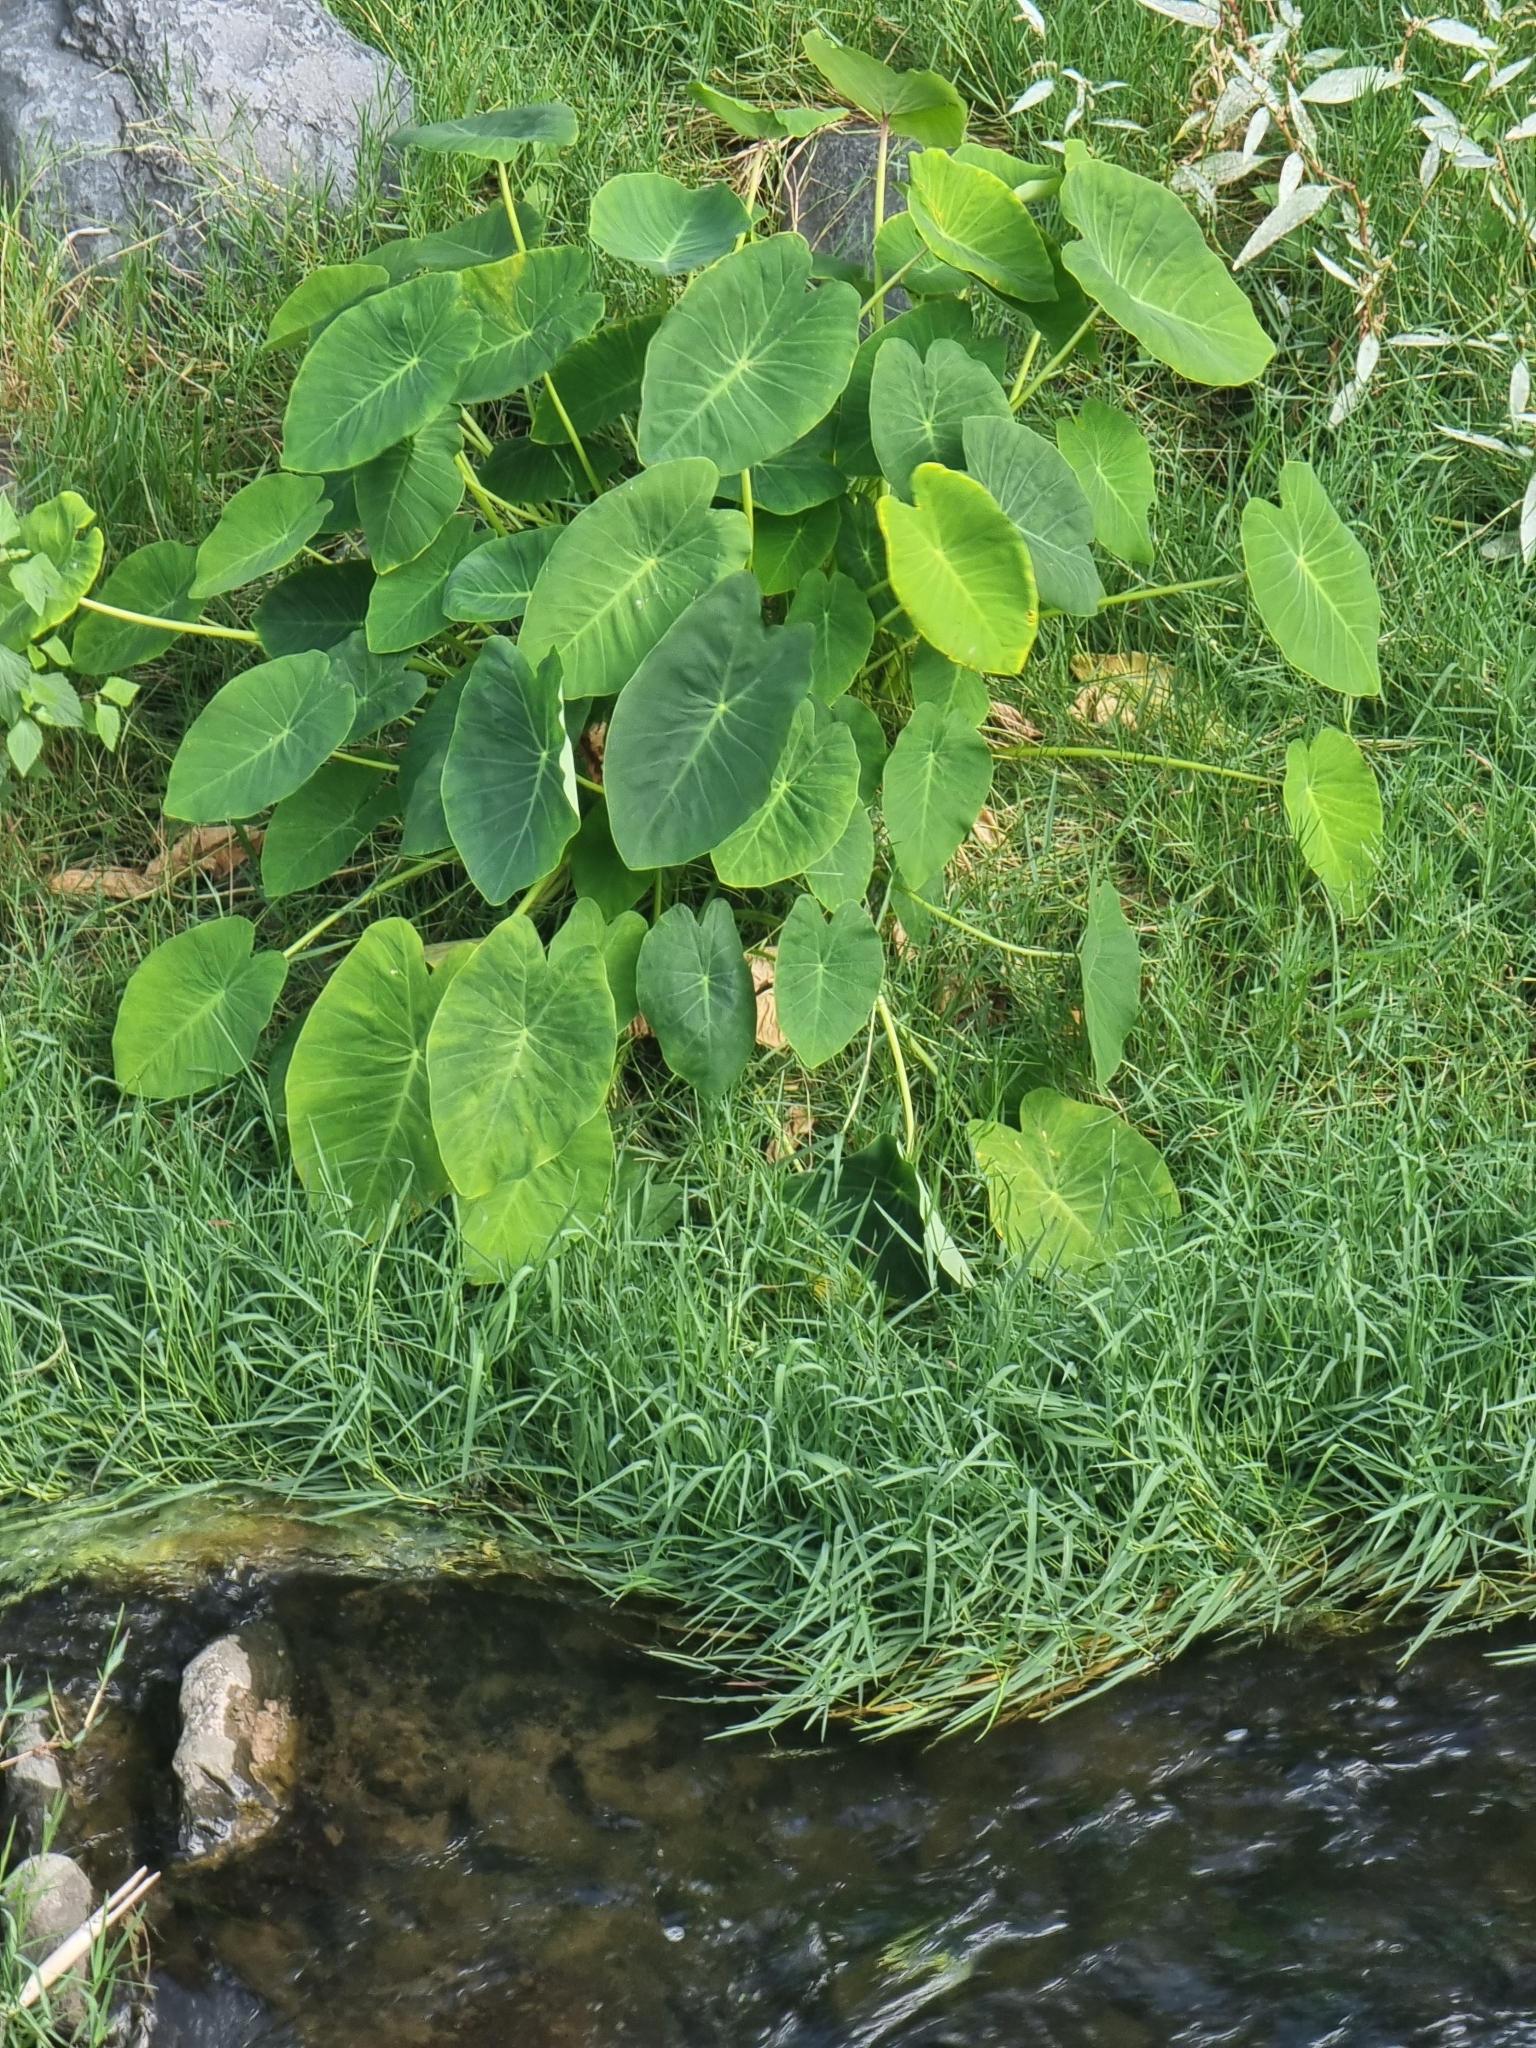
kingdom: Plantae
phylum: Tracheophyta
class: Liliopsida
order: Alismatales
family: Araceae
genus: Colocasia
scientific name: Colocasia esculenta
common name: Taro
